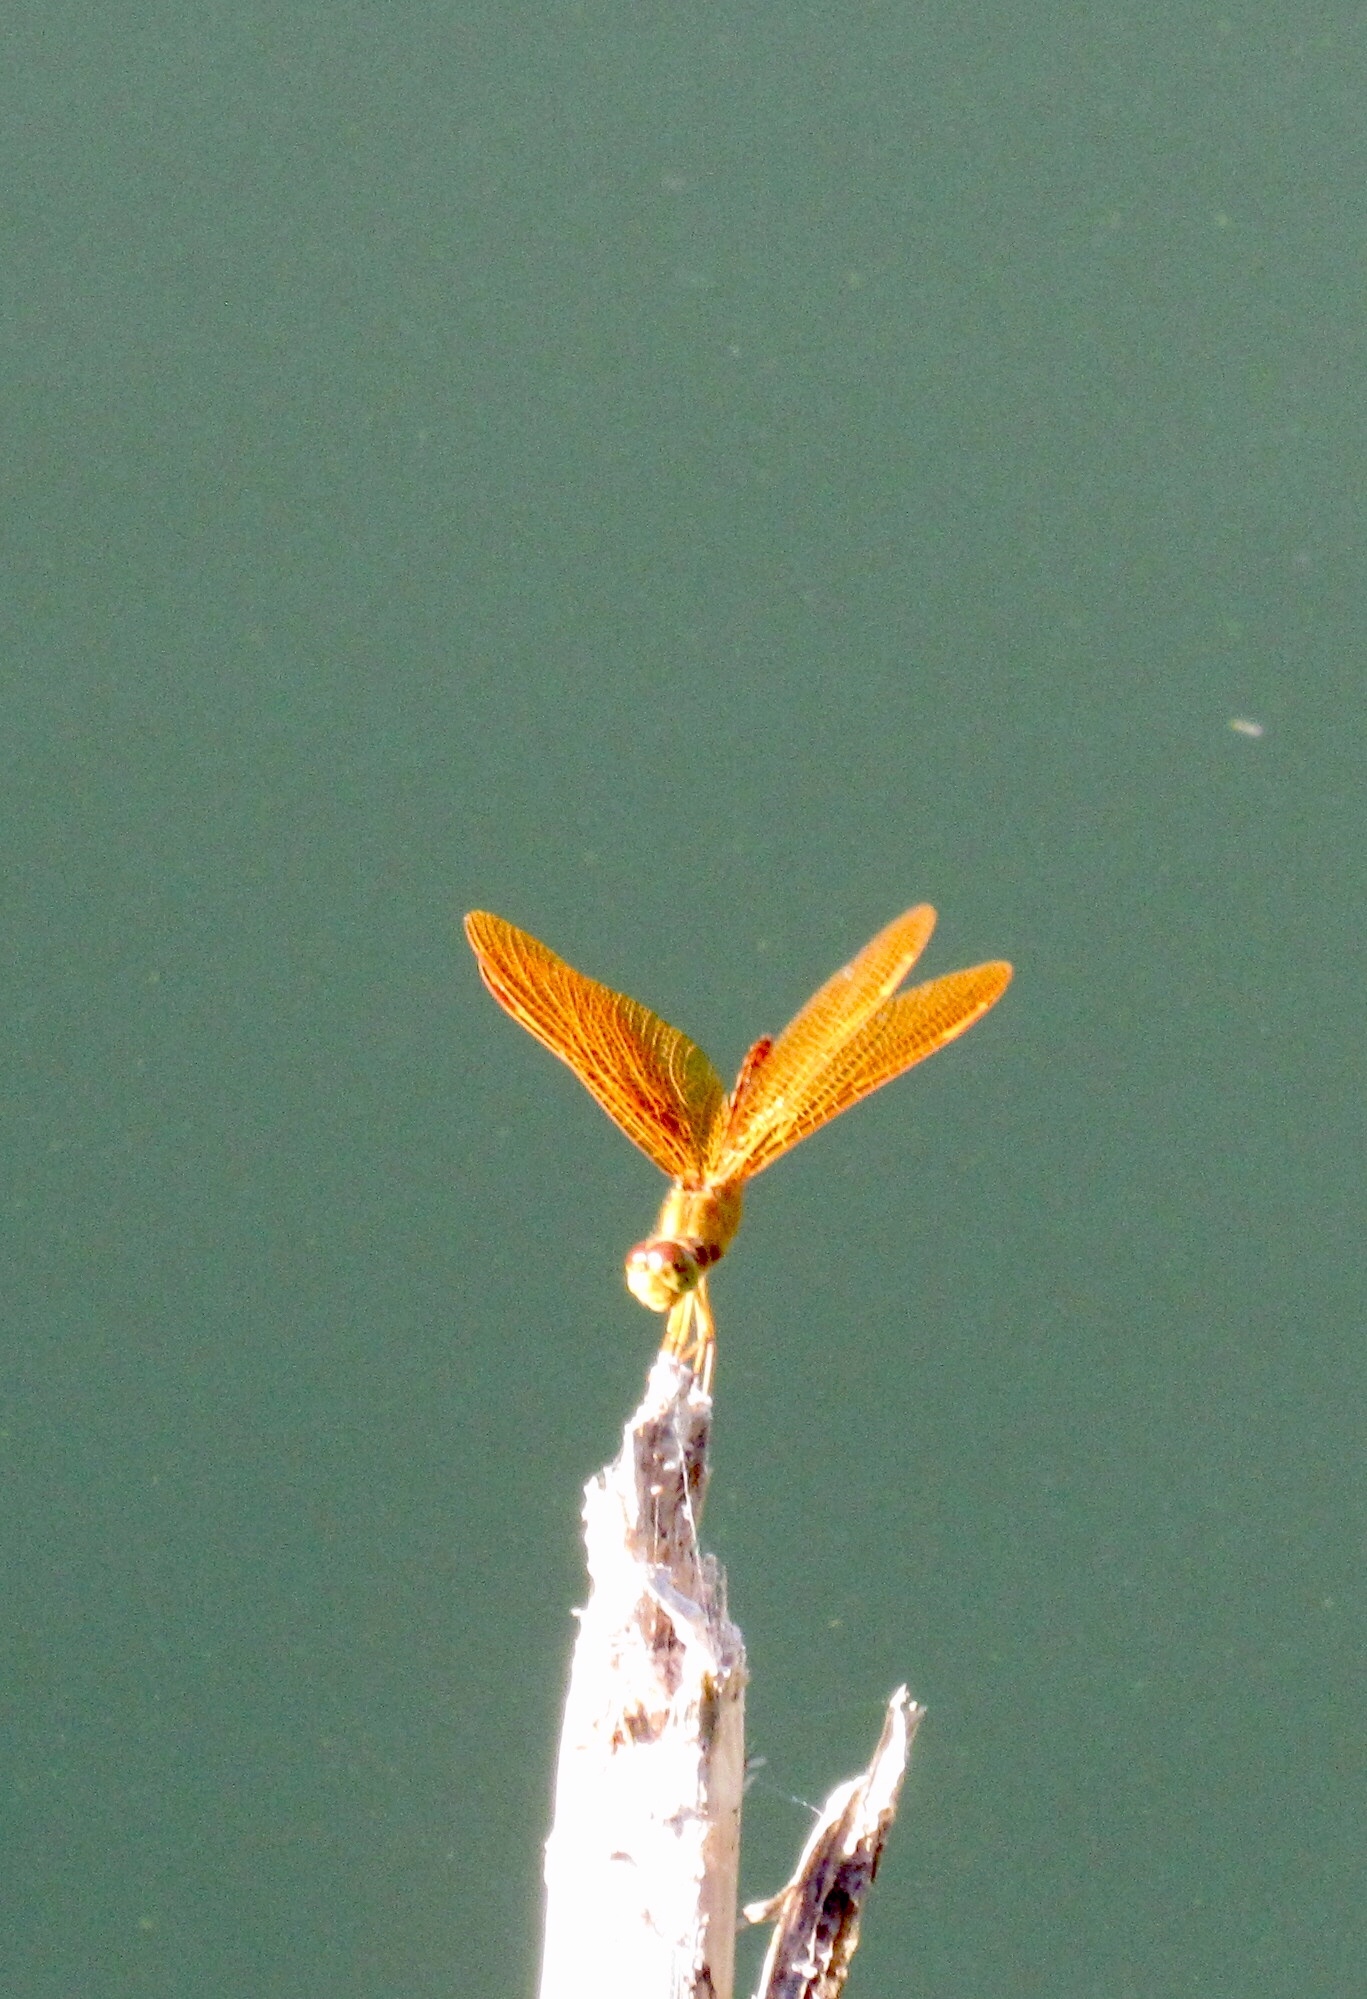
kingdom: Animalia
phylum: Arthropoda
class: Insecta
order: Odonata
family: Libellulidae
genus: Perithemis
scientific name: Perithemis intensa
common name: Mexican amberwing
